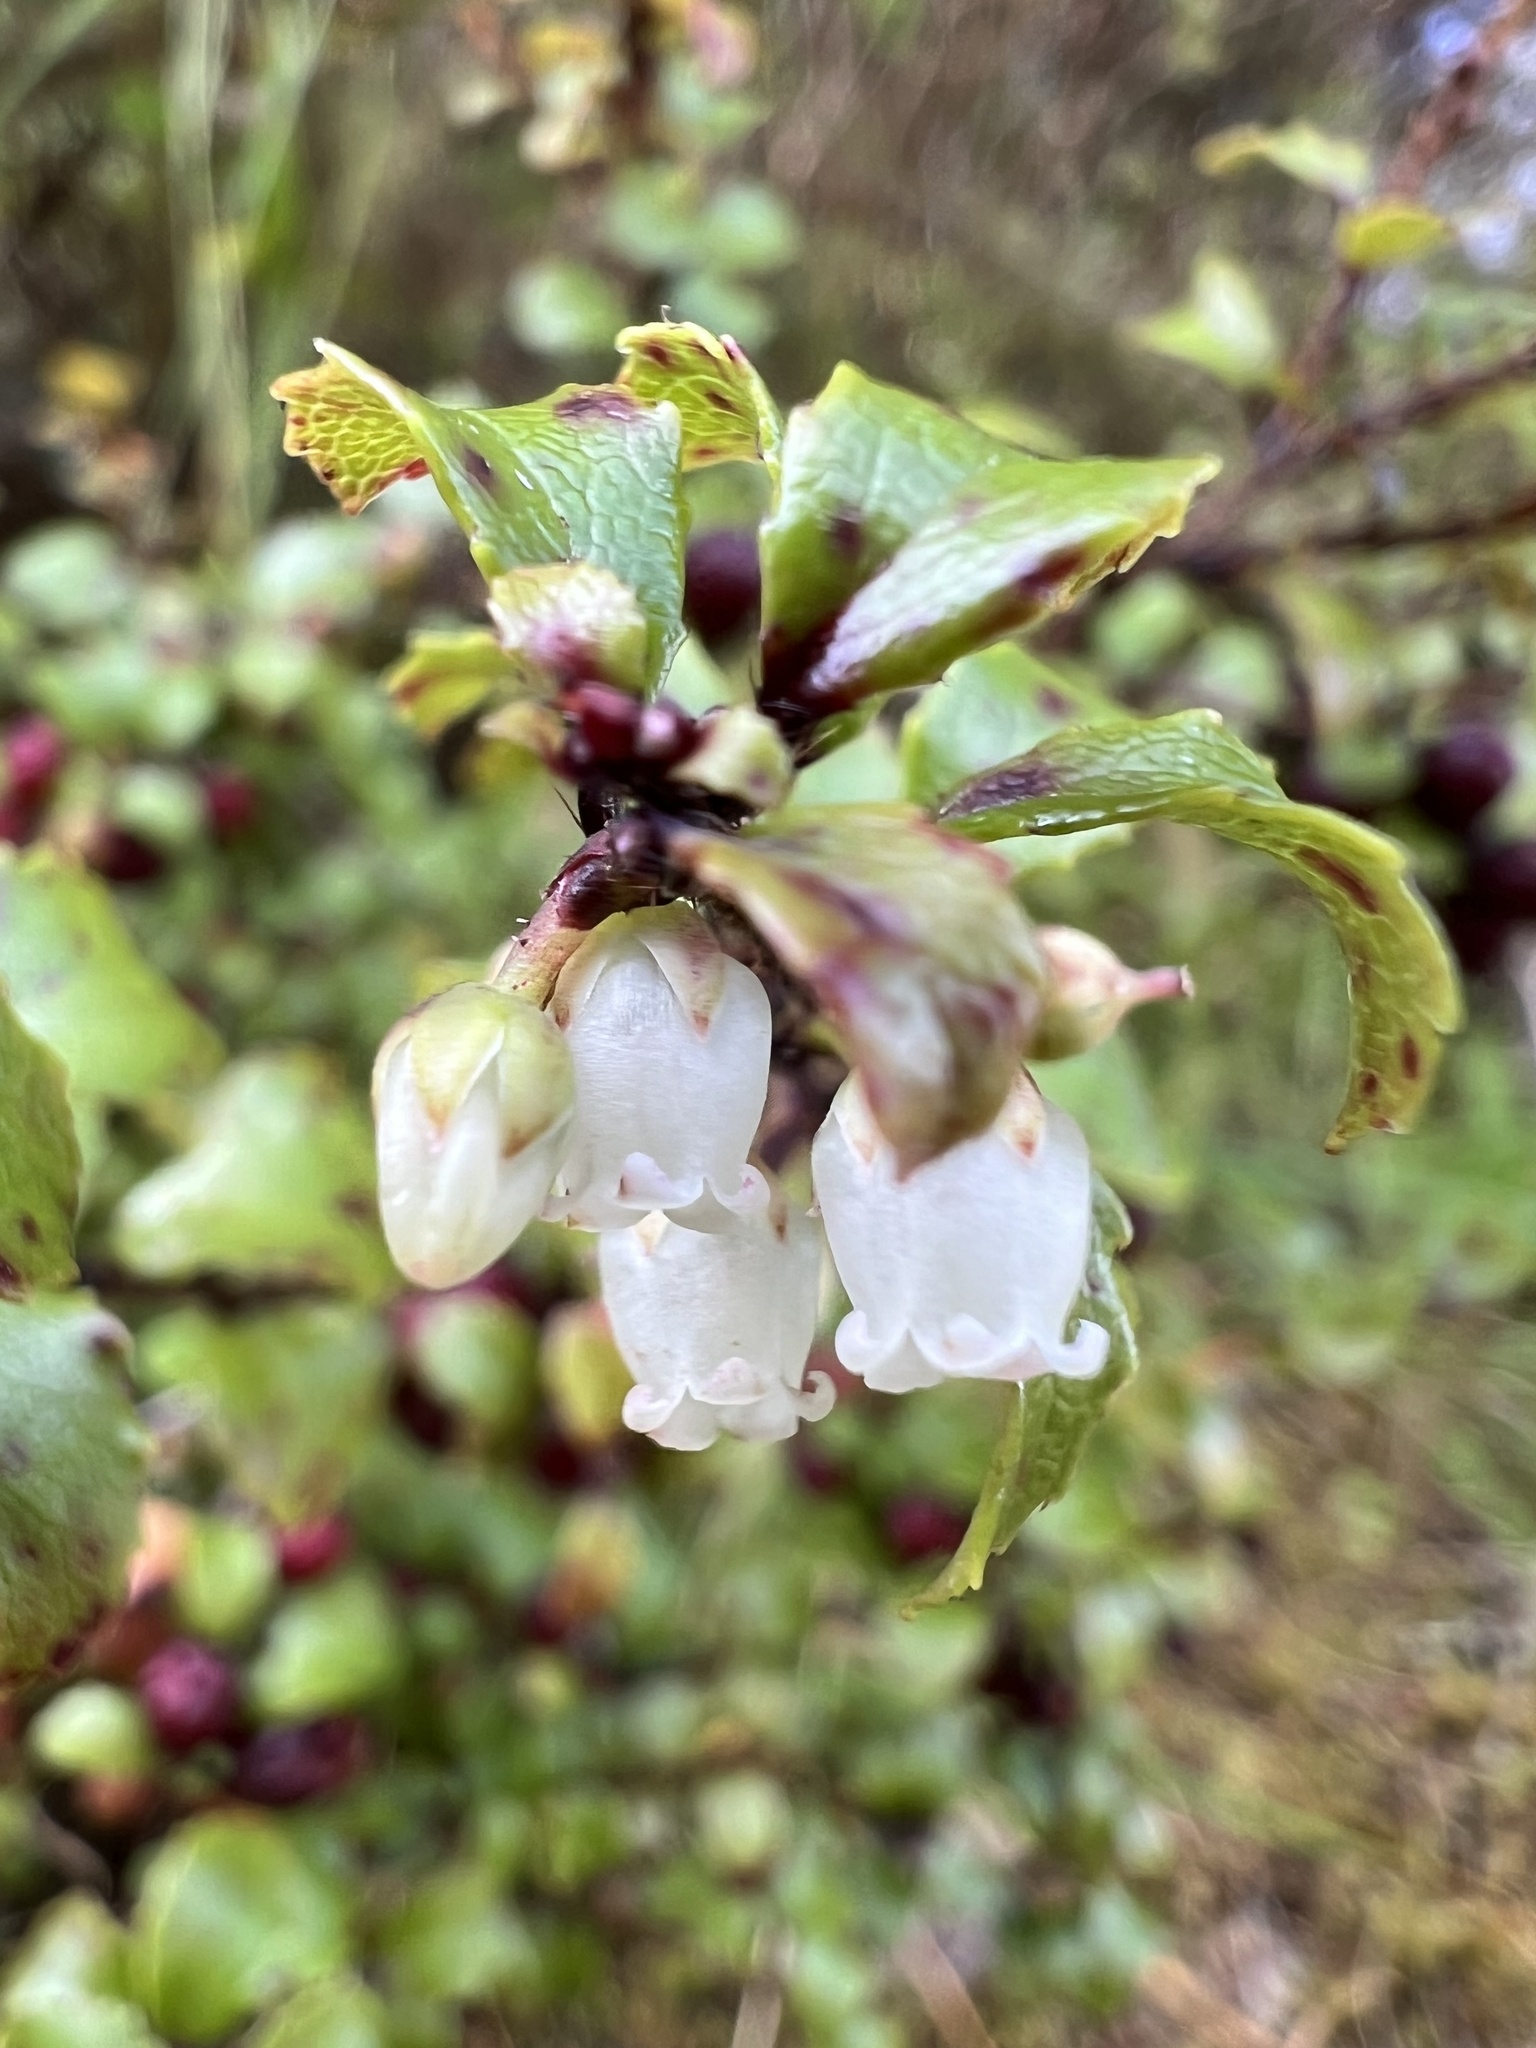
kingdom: Plantae
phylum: Tracheophyta
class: Magnoliopsida
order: Ericales
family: Ericaceae
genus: Gaultheria
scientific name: Gaultheria antipoda
